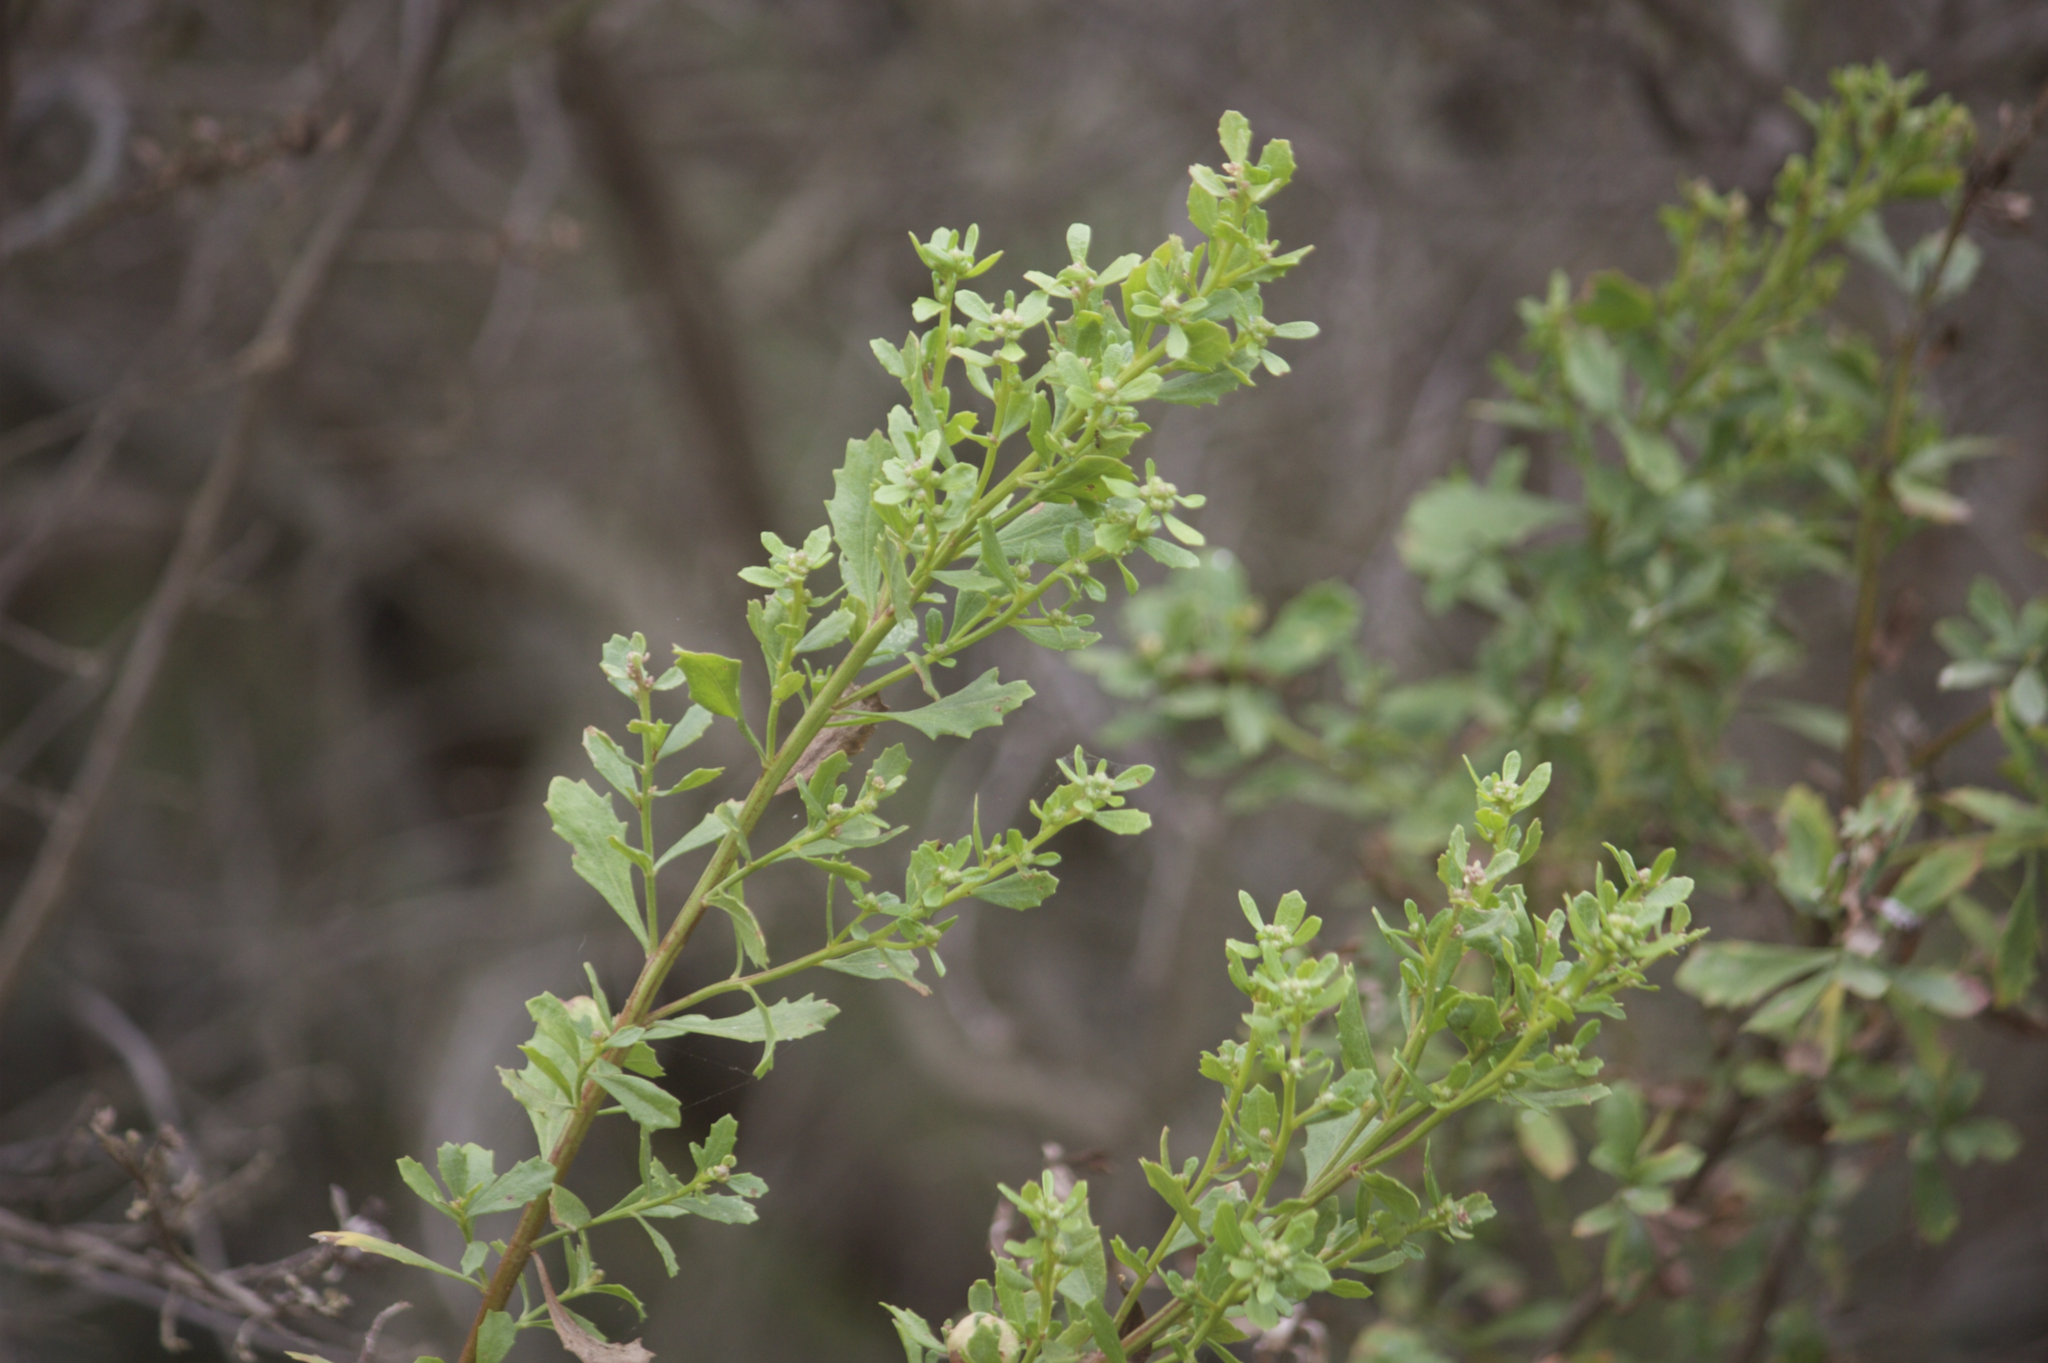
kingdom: Plantae
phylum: Tracheophyta
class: Magnoliopsida
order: Asterales
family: Asteraceae
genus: Baccharis
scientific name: Baccharis pilularis
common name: Coyotebrush
